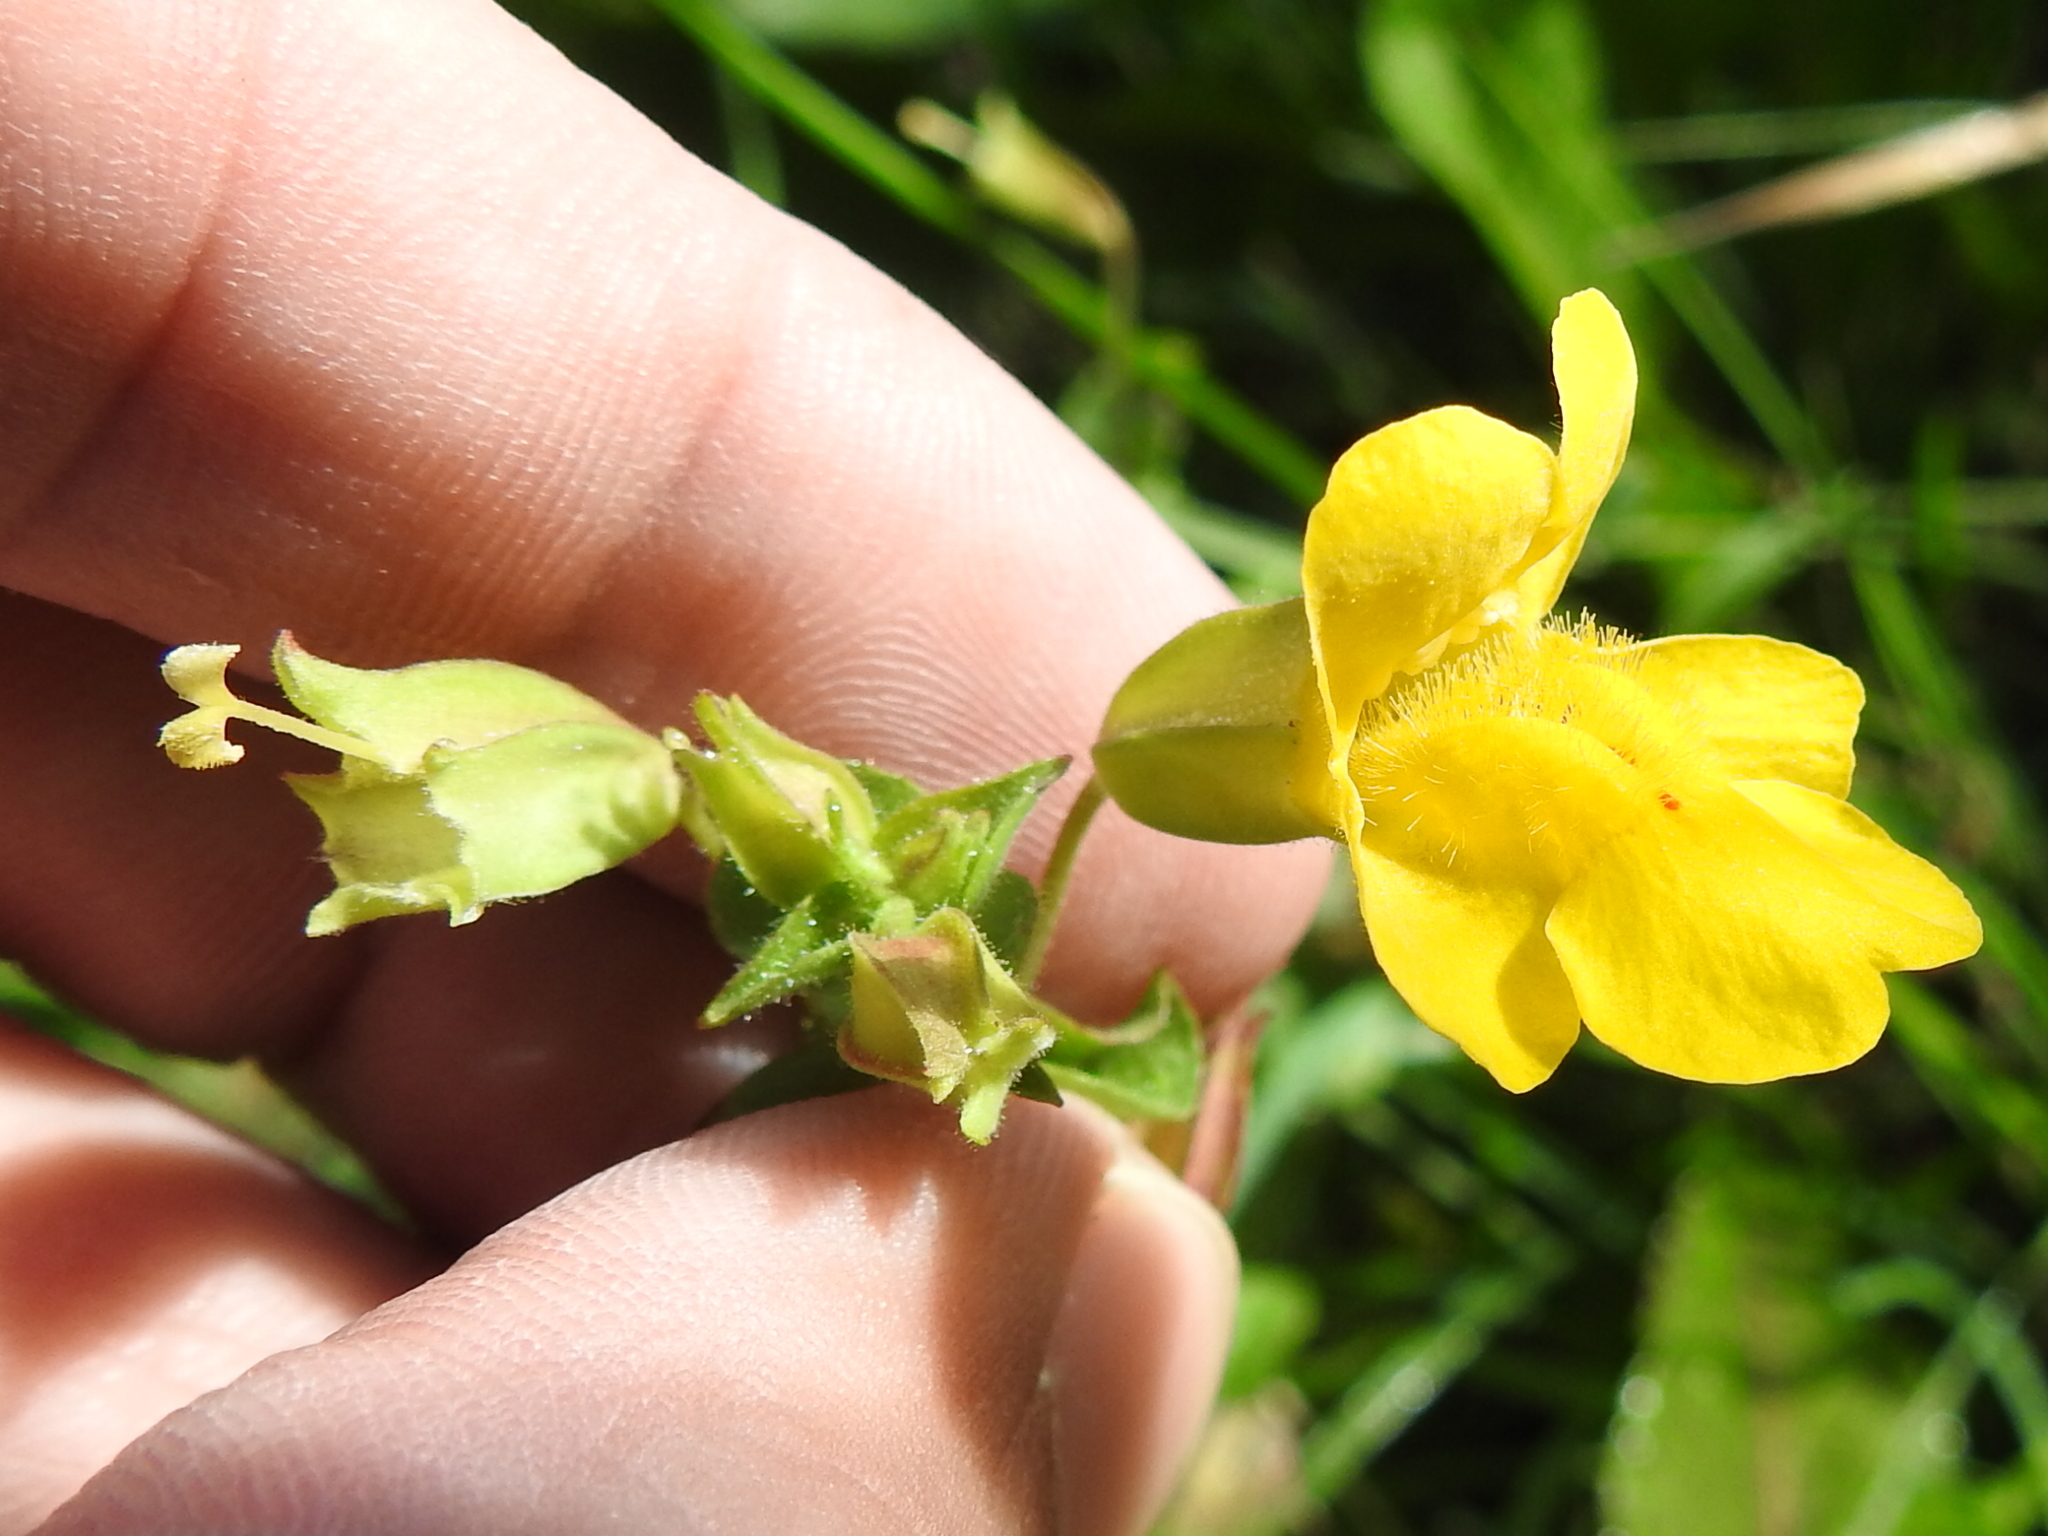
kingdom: Plantae
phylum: Tracheophyta
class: Magnoliopsida
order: Lamiales
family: Phrymaceae
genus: Erythranthe
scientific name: Erythranthe guttata
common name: Monkeyflower
